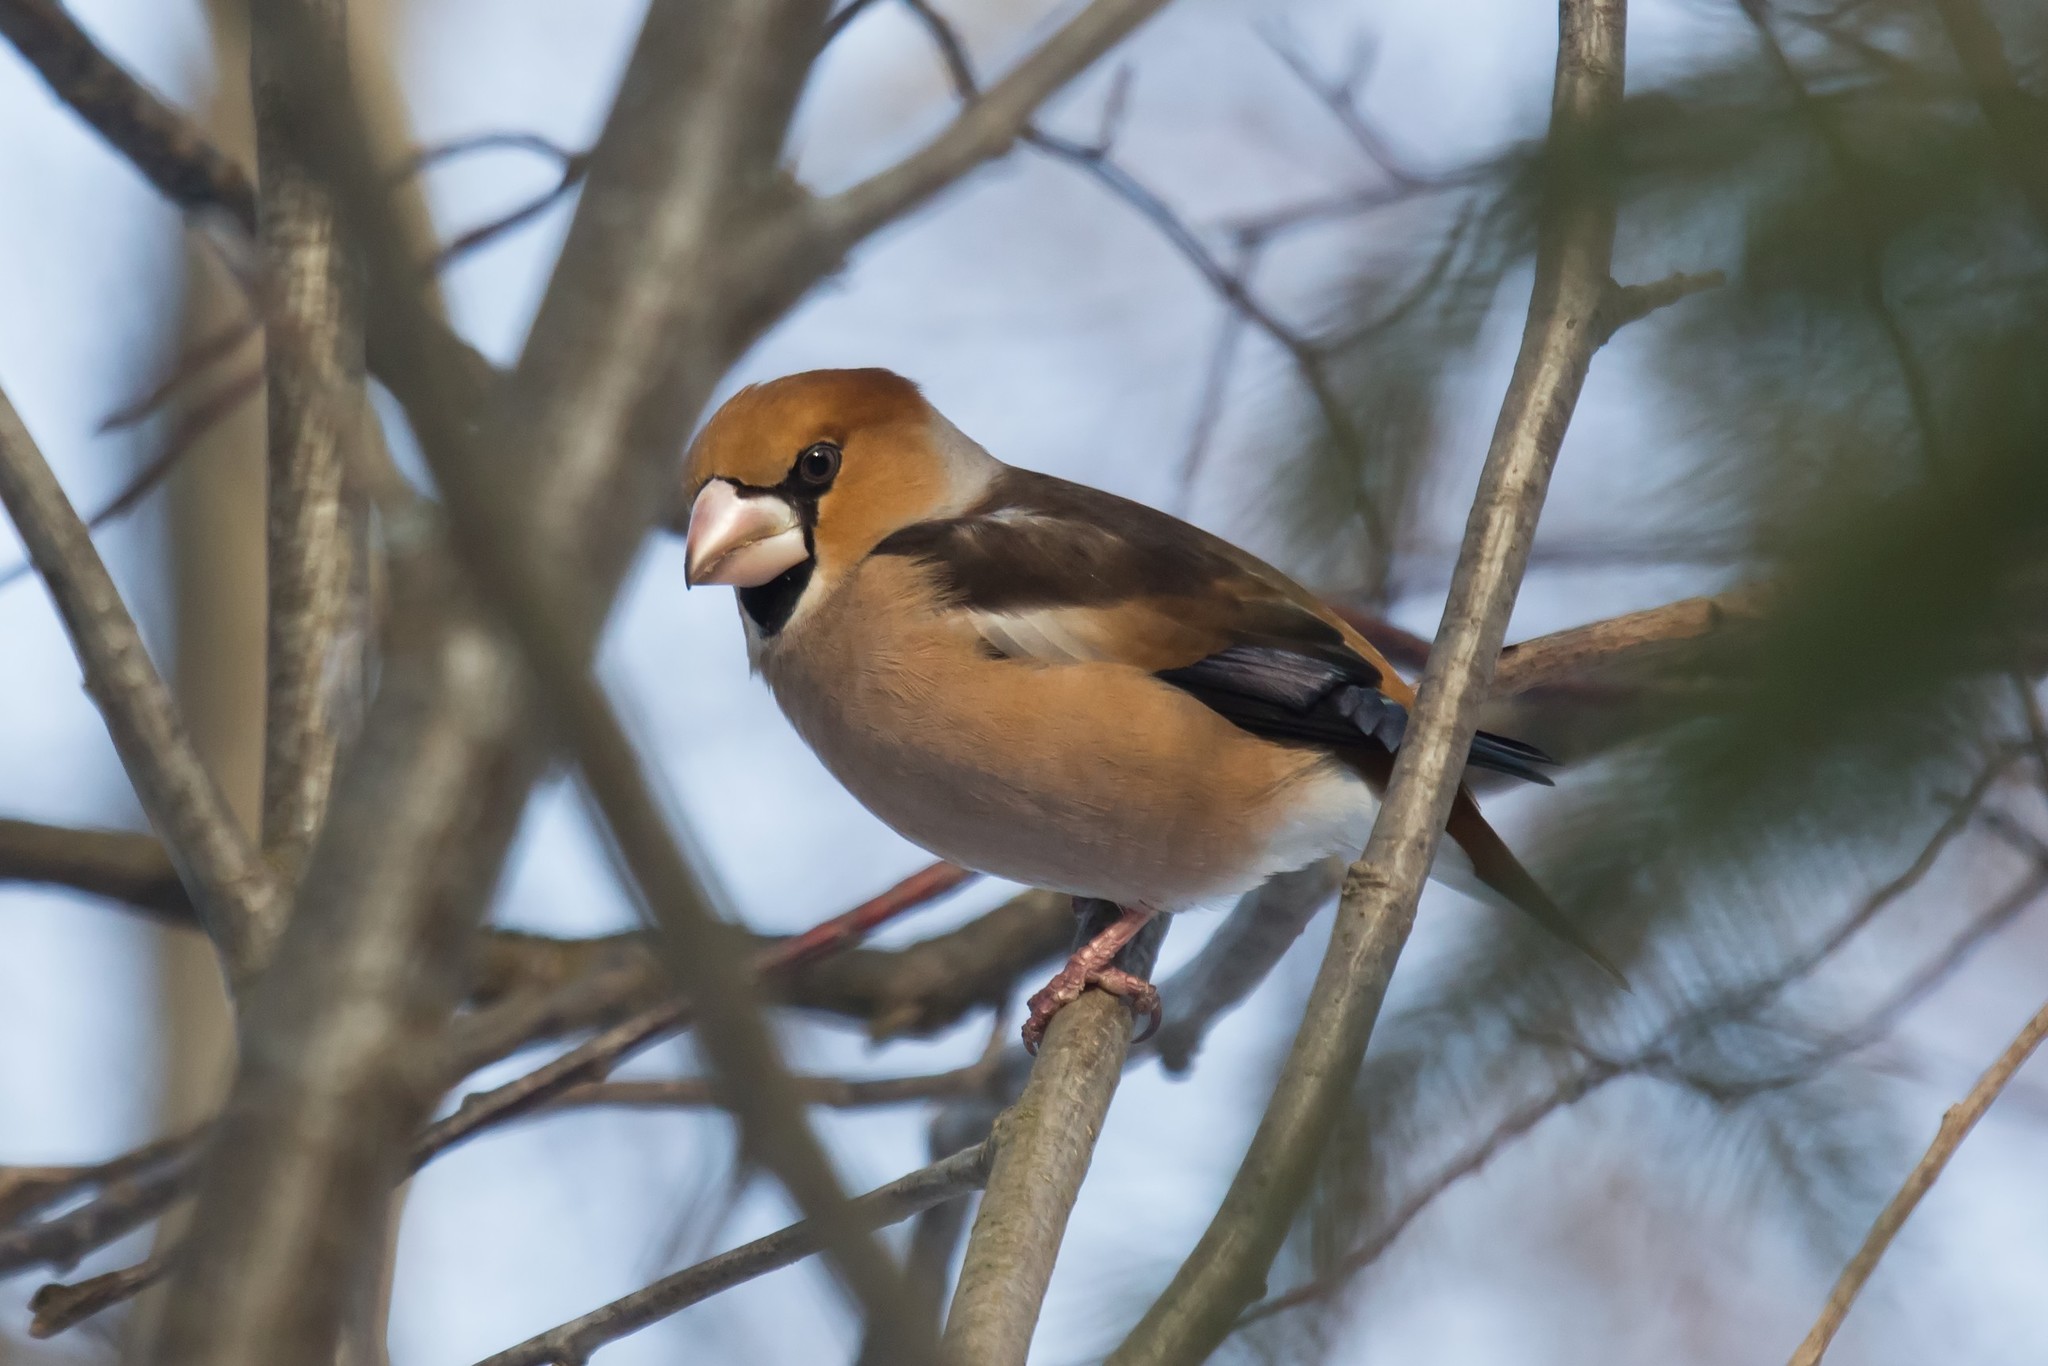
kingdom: Animalia
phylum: Chordata
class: Aves
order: Passeriformes
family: Fringillidae
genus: Coccothraustes
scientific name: Coccothraustes coccothraustes
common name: Hawfinch
